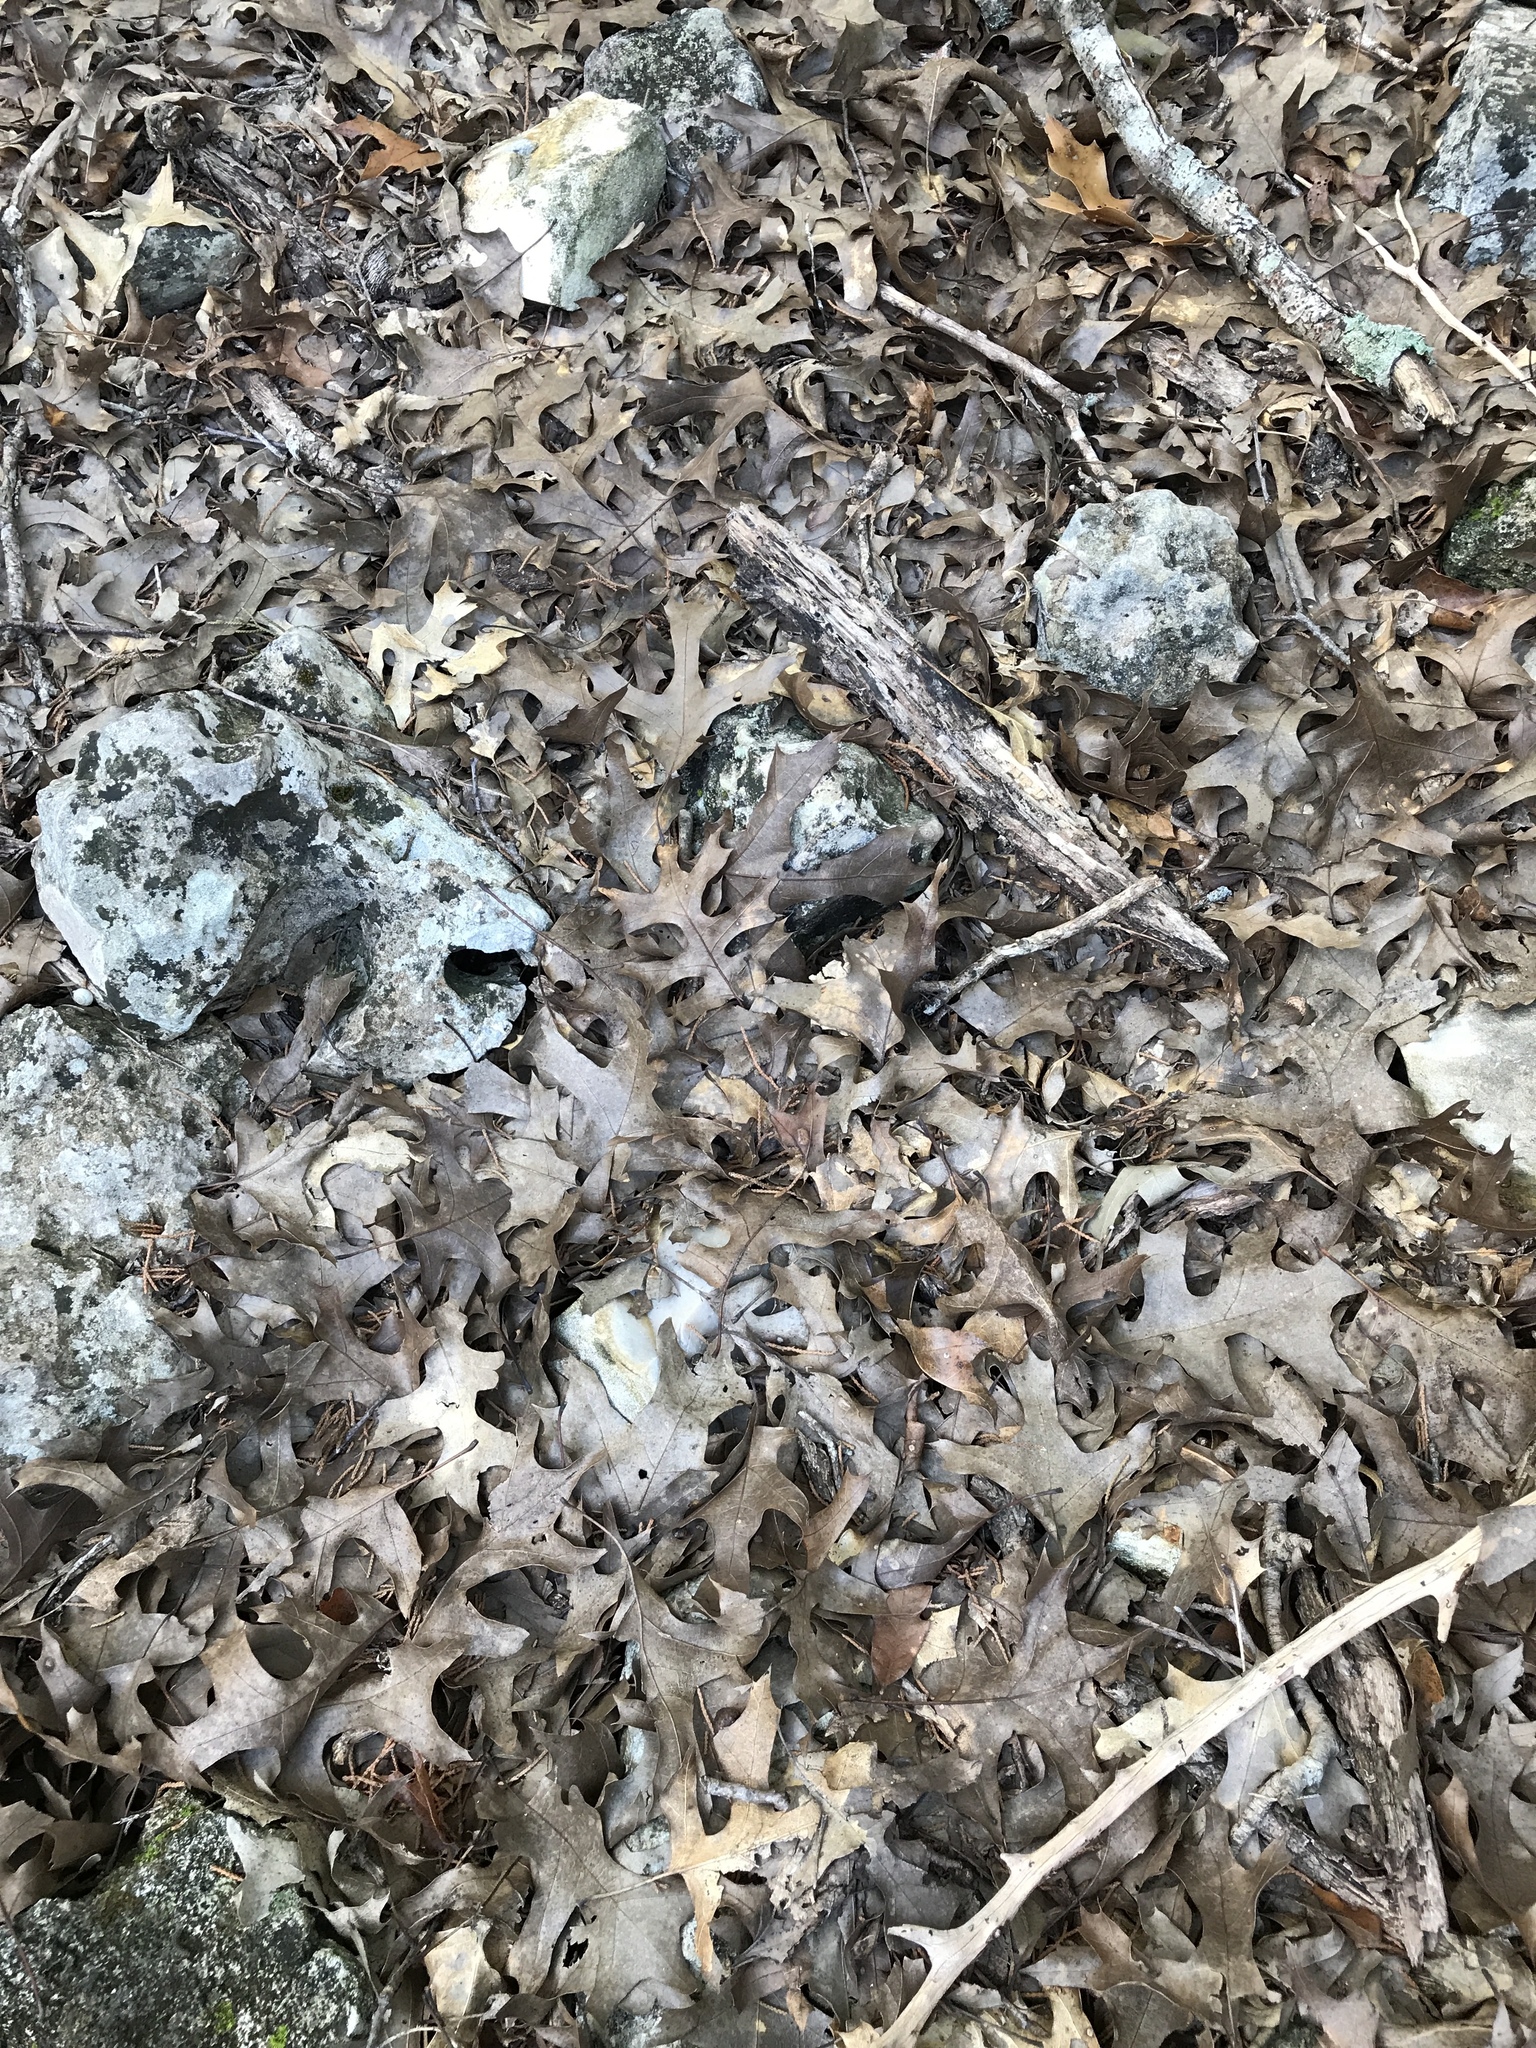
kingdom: Plantae
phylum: Tracheophyta
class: Magnoliopsida
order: Fagales
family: Fagaceae
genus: Quercus
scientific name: Quercus buckleyi
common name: Buckley oak
